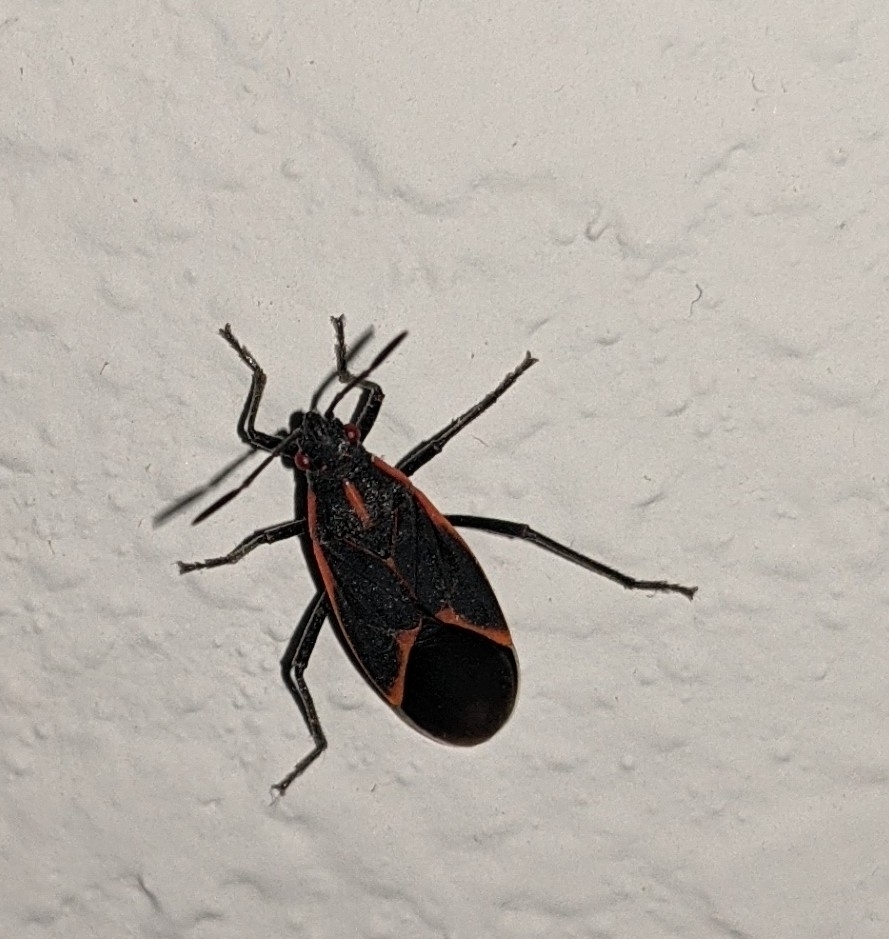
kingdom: Animalia
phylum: Arthropoda
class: Insecta
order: Hemiptera
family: Rhopalidae
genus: Boisea
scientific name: Boisea trivittata
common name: Boxelder bug
